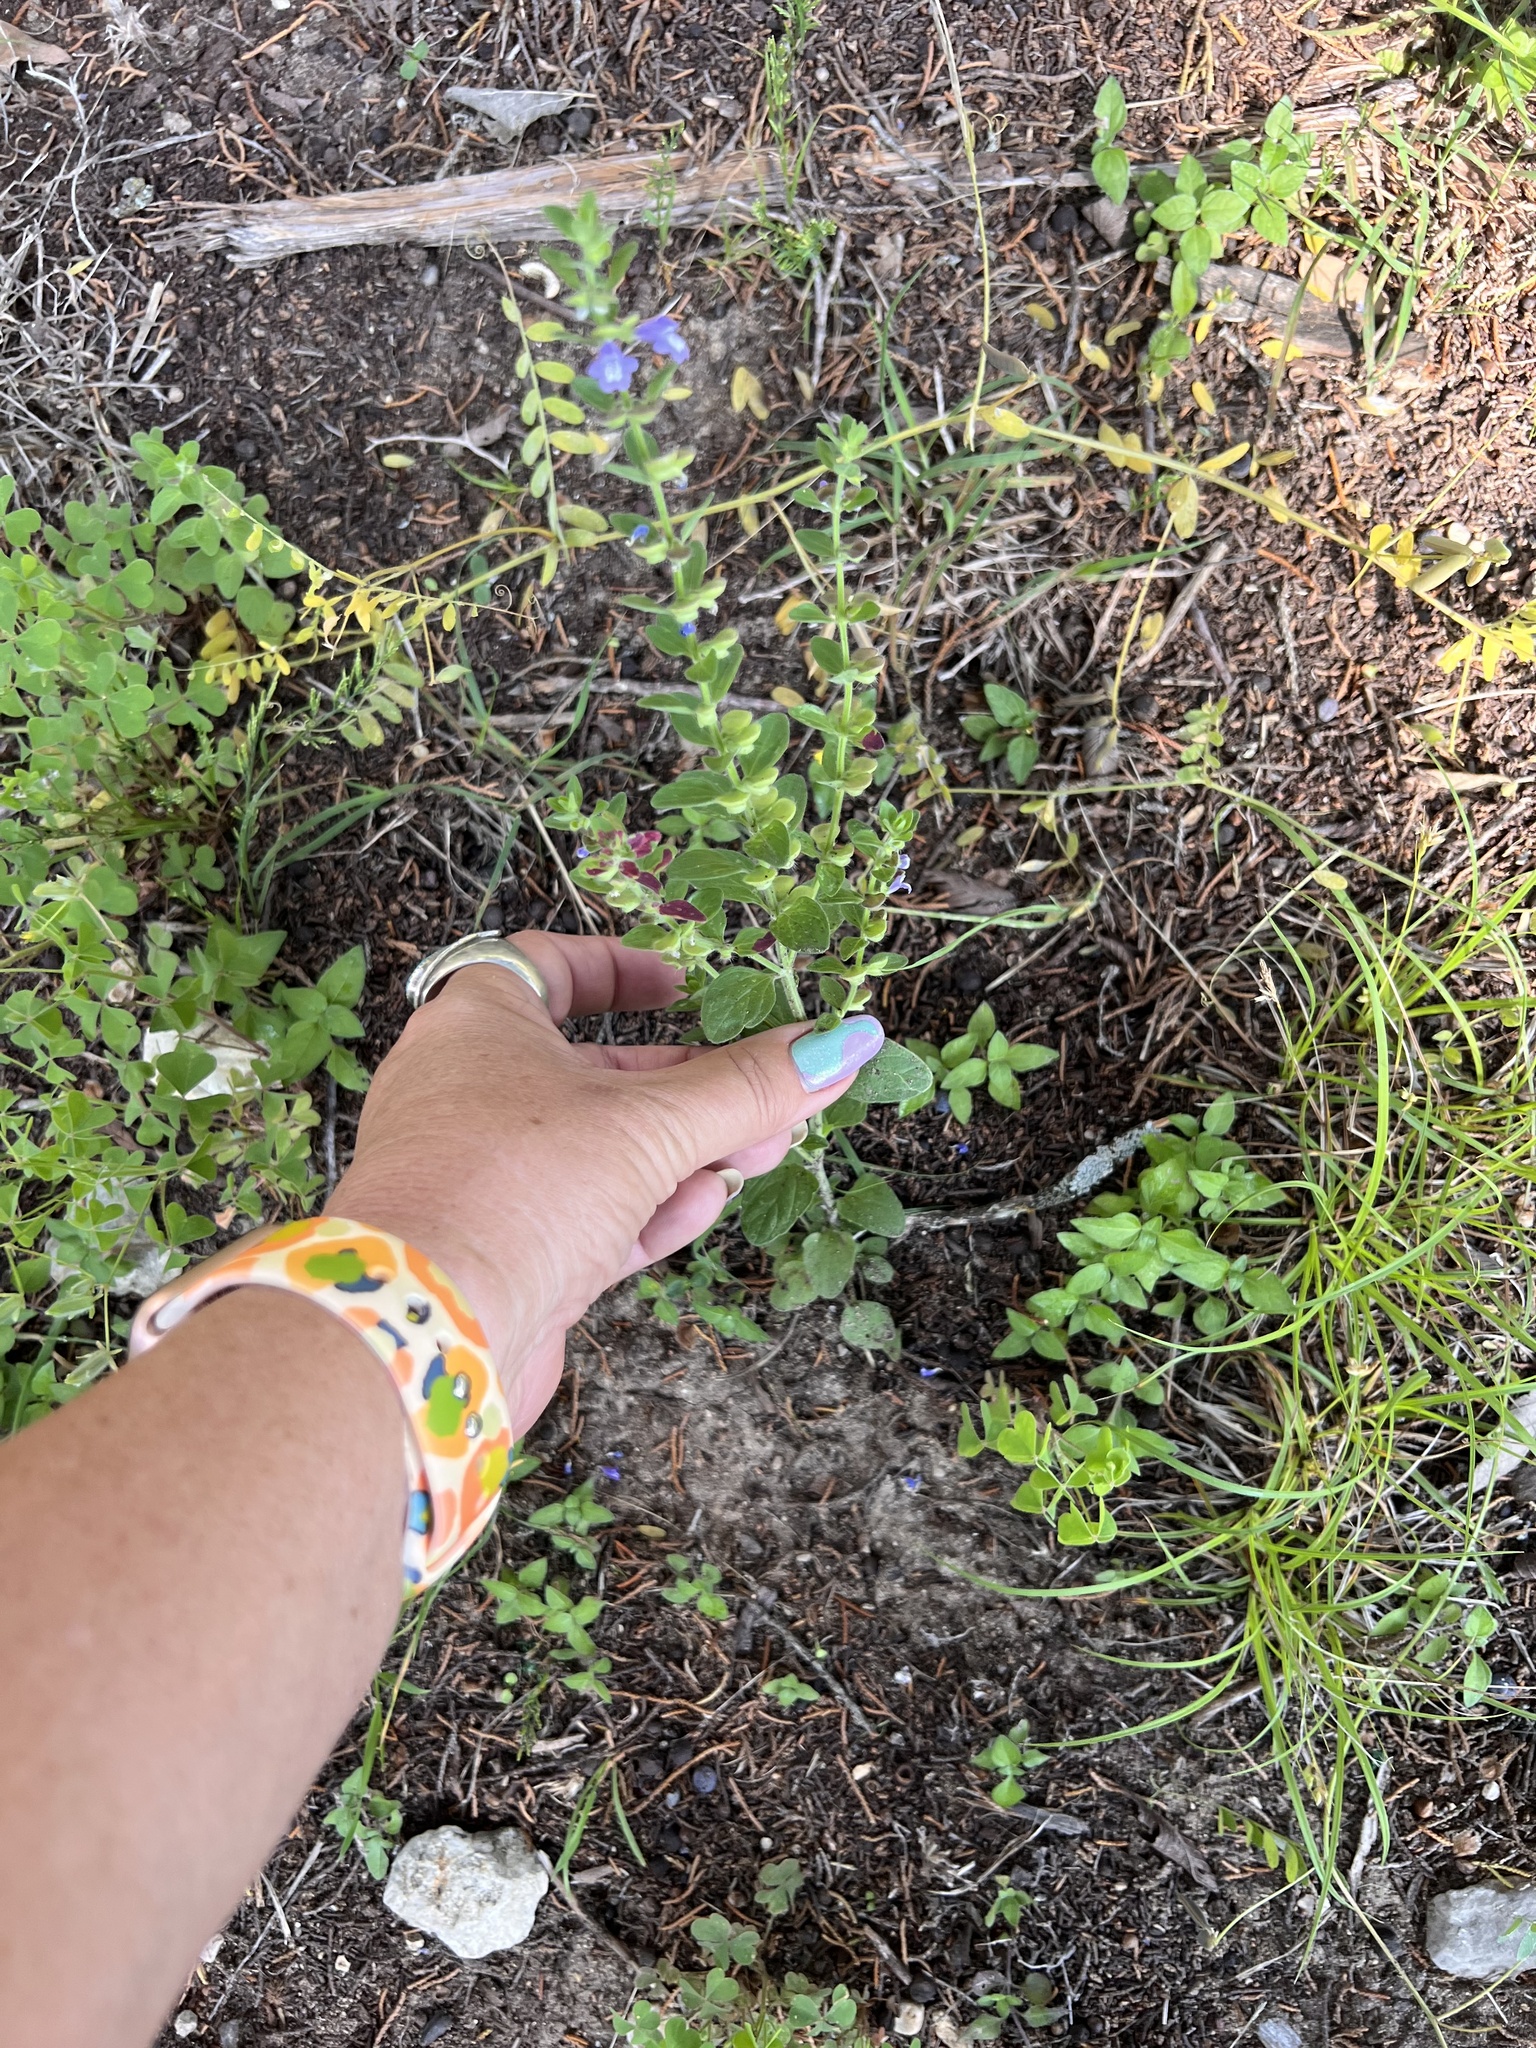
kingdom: Plantae
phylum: Tracheophyta
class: Magnoliopsida
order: Lamiales
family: Lamiaceae
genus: Scutellaria
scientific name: Scutellaria drummondii
